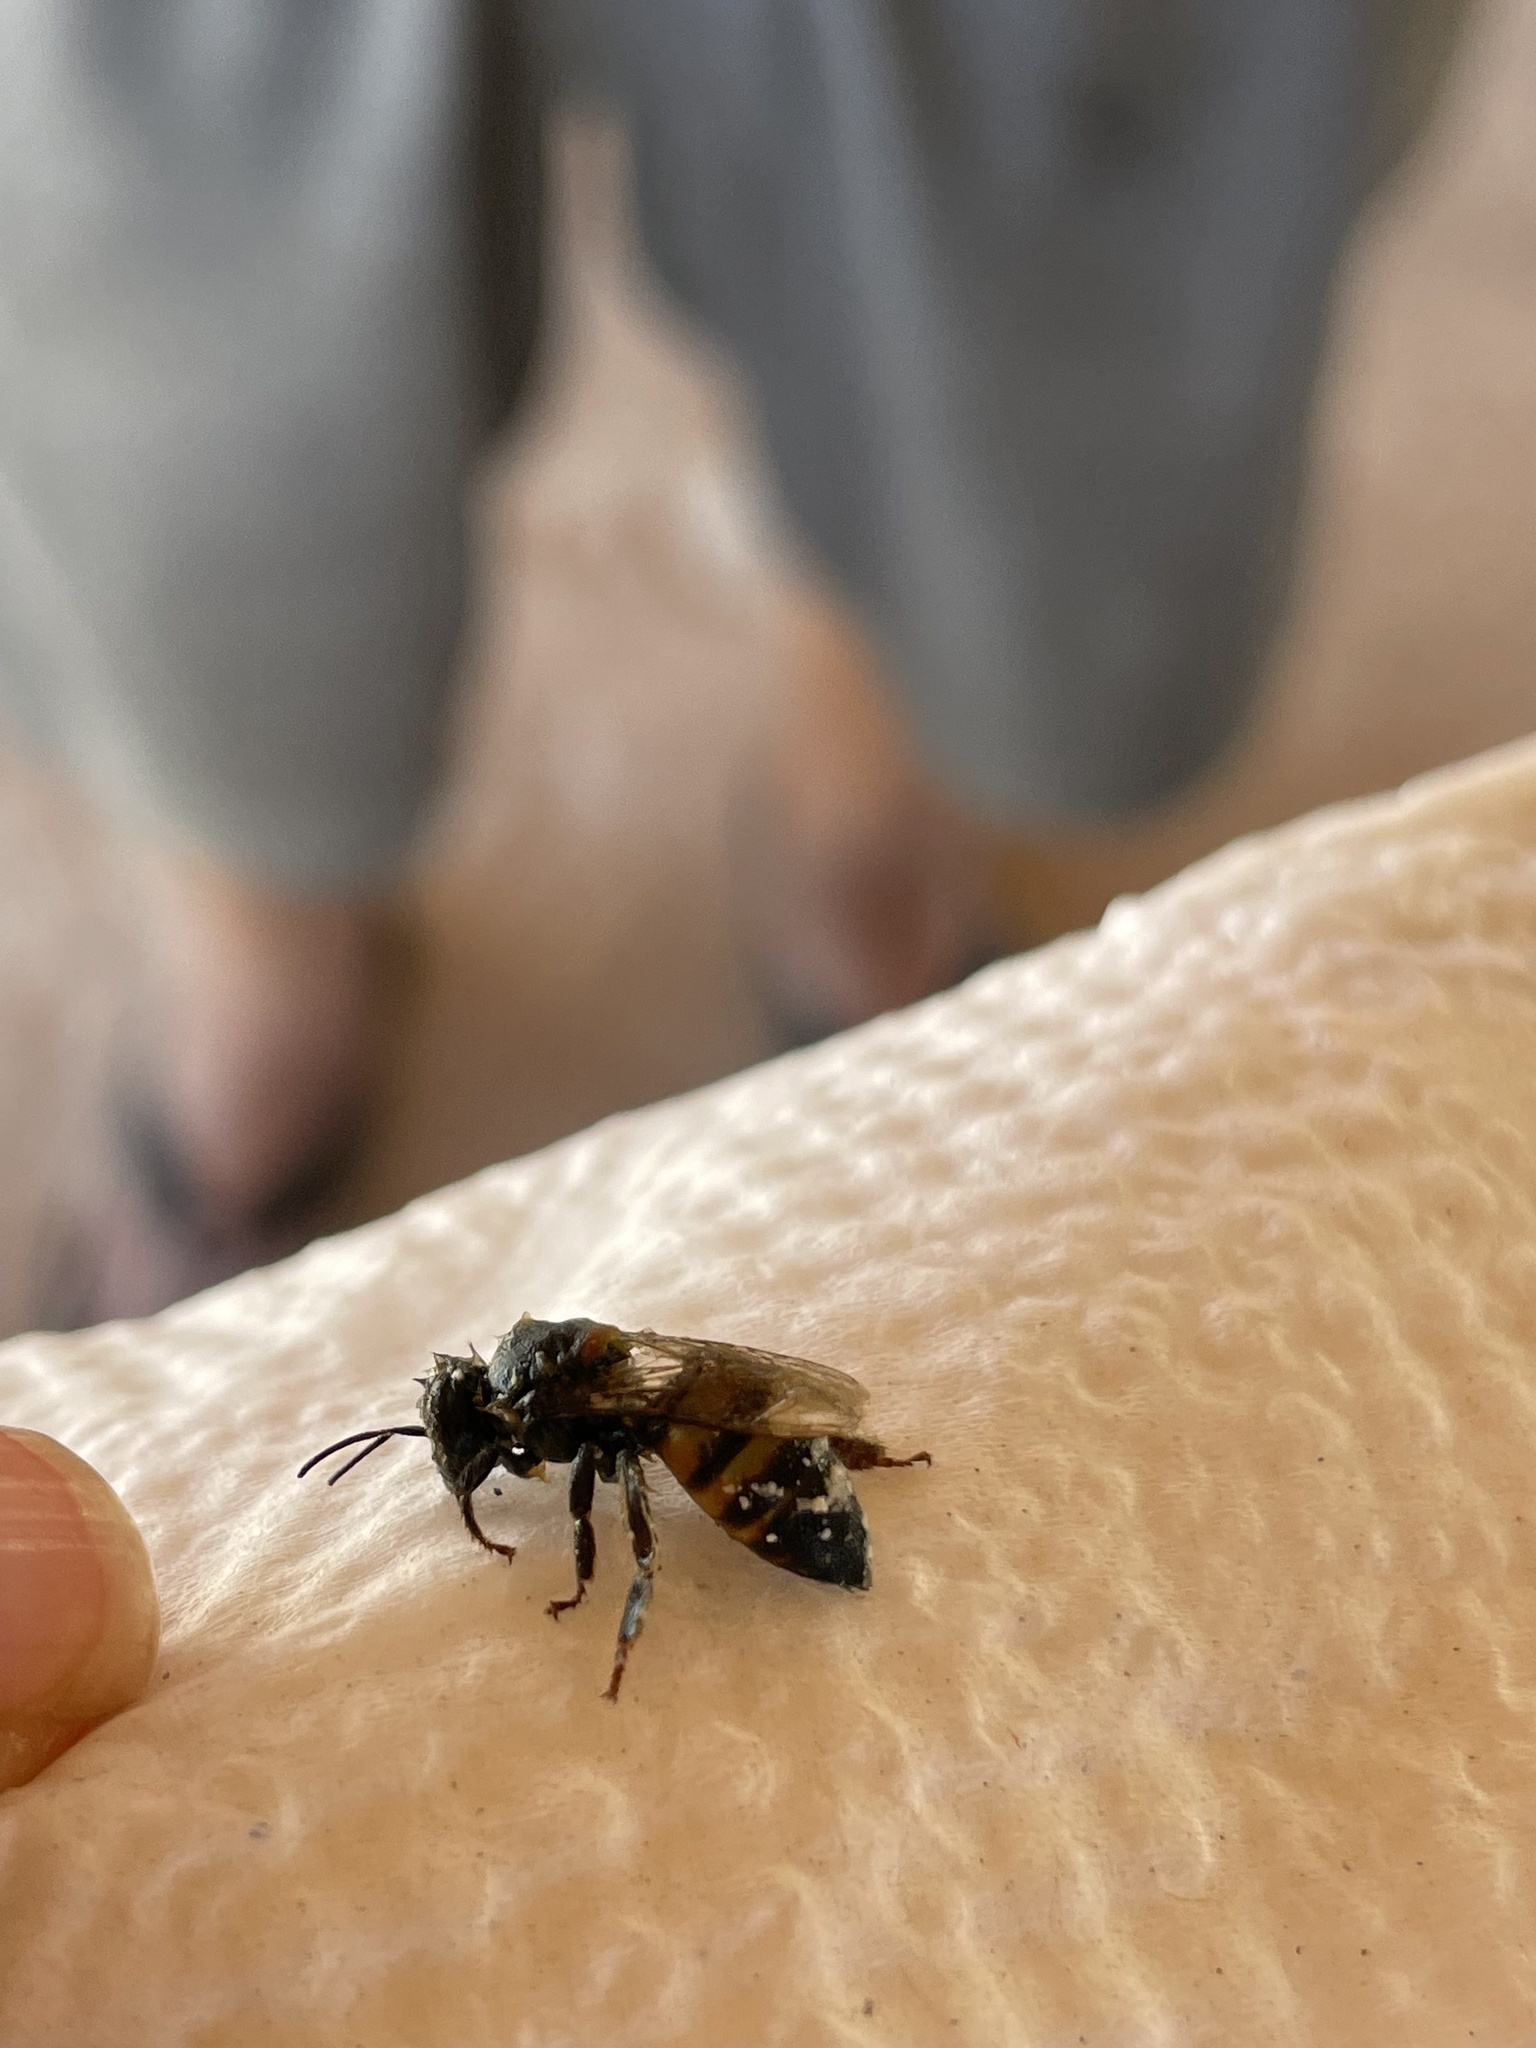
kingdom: Animalia
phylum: Arthropoda
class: Insecta
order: Hymenoptera
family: Apidae
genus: Apis
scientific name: Apis mellifera
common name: Honey bee
